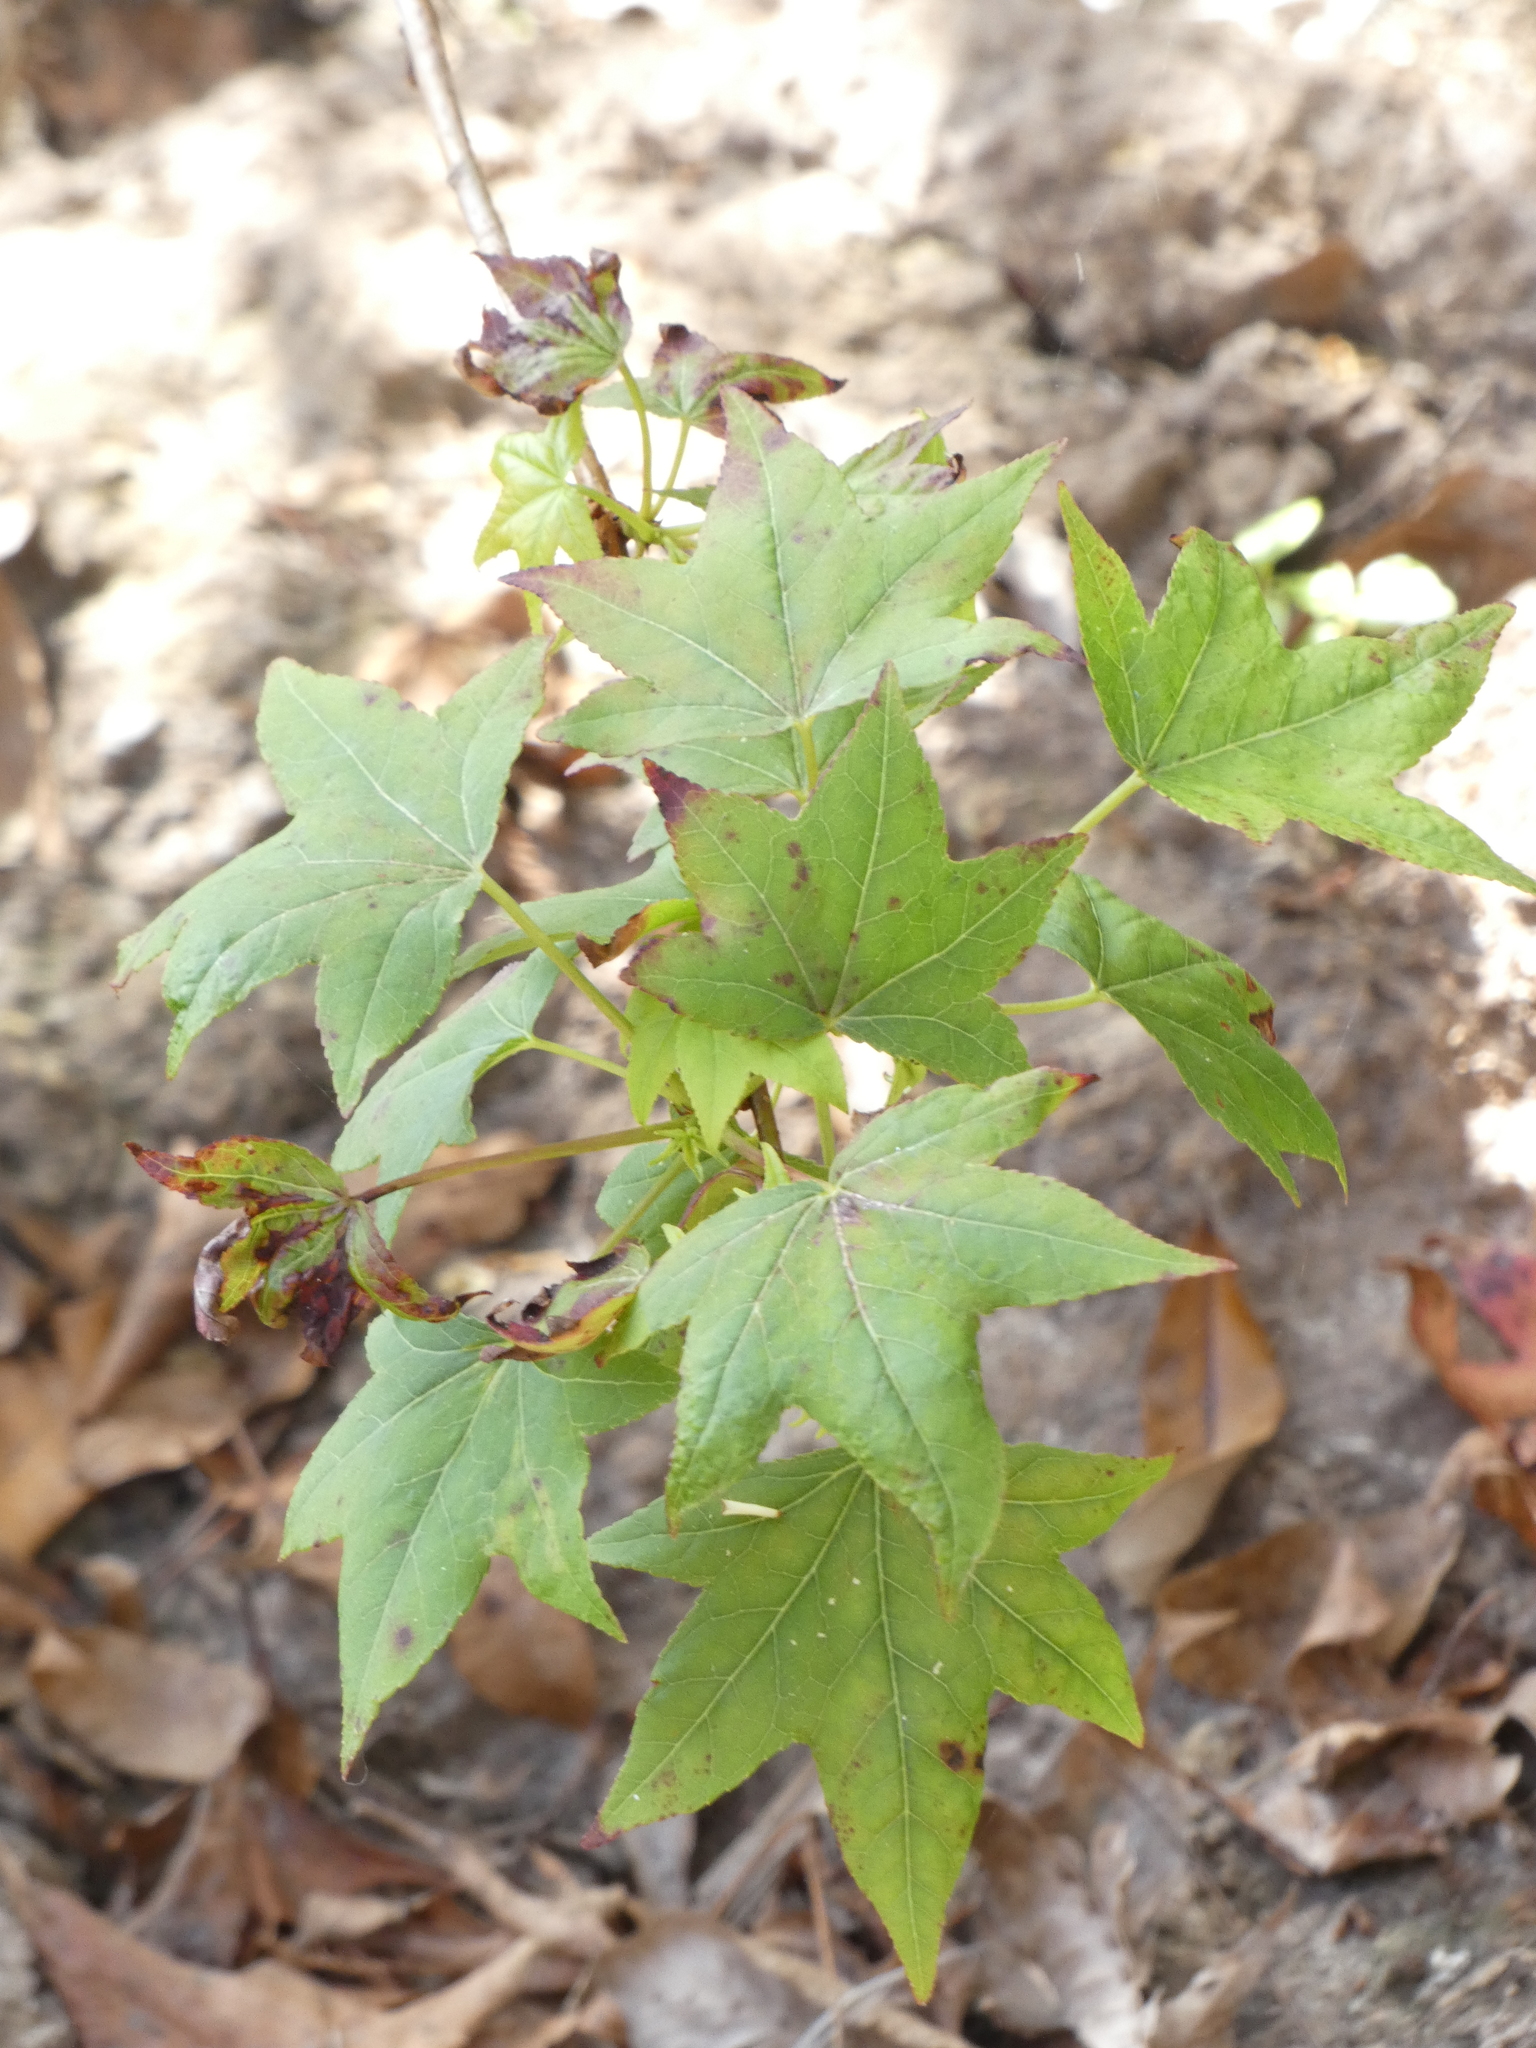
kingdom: Plantae
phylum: Tracheophyta
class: Magnoliopsida
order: Saxifragales
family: Altingiaceae
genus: Liquidambar
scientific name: Liquidambar styraciflua
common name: Sweet gum
